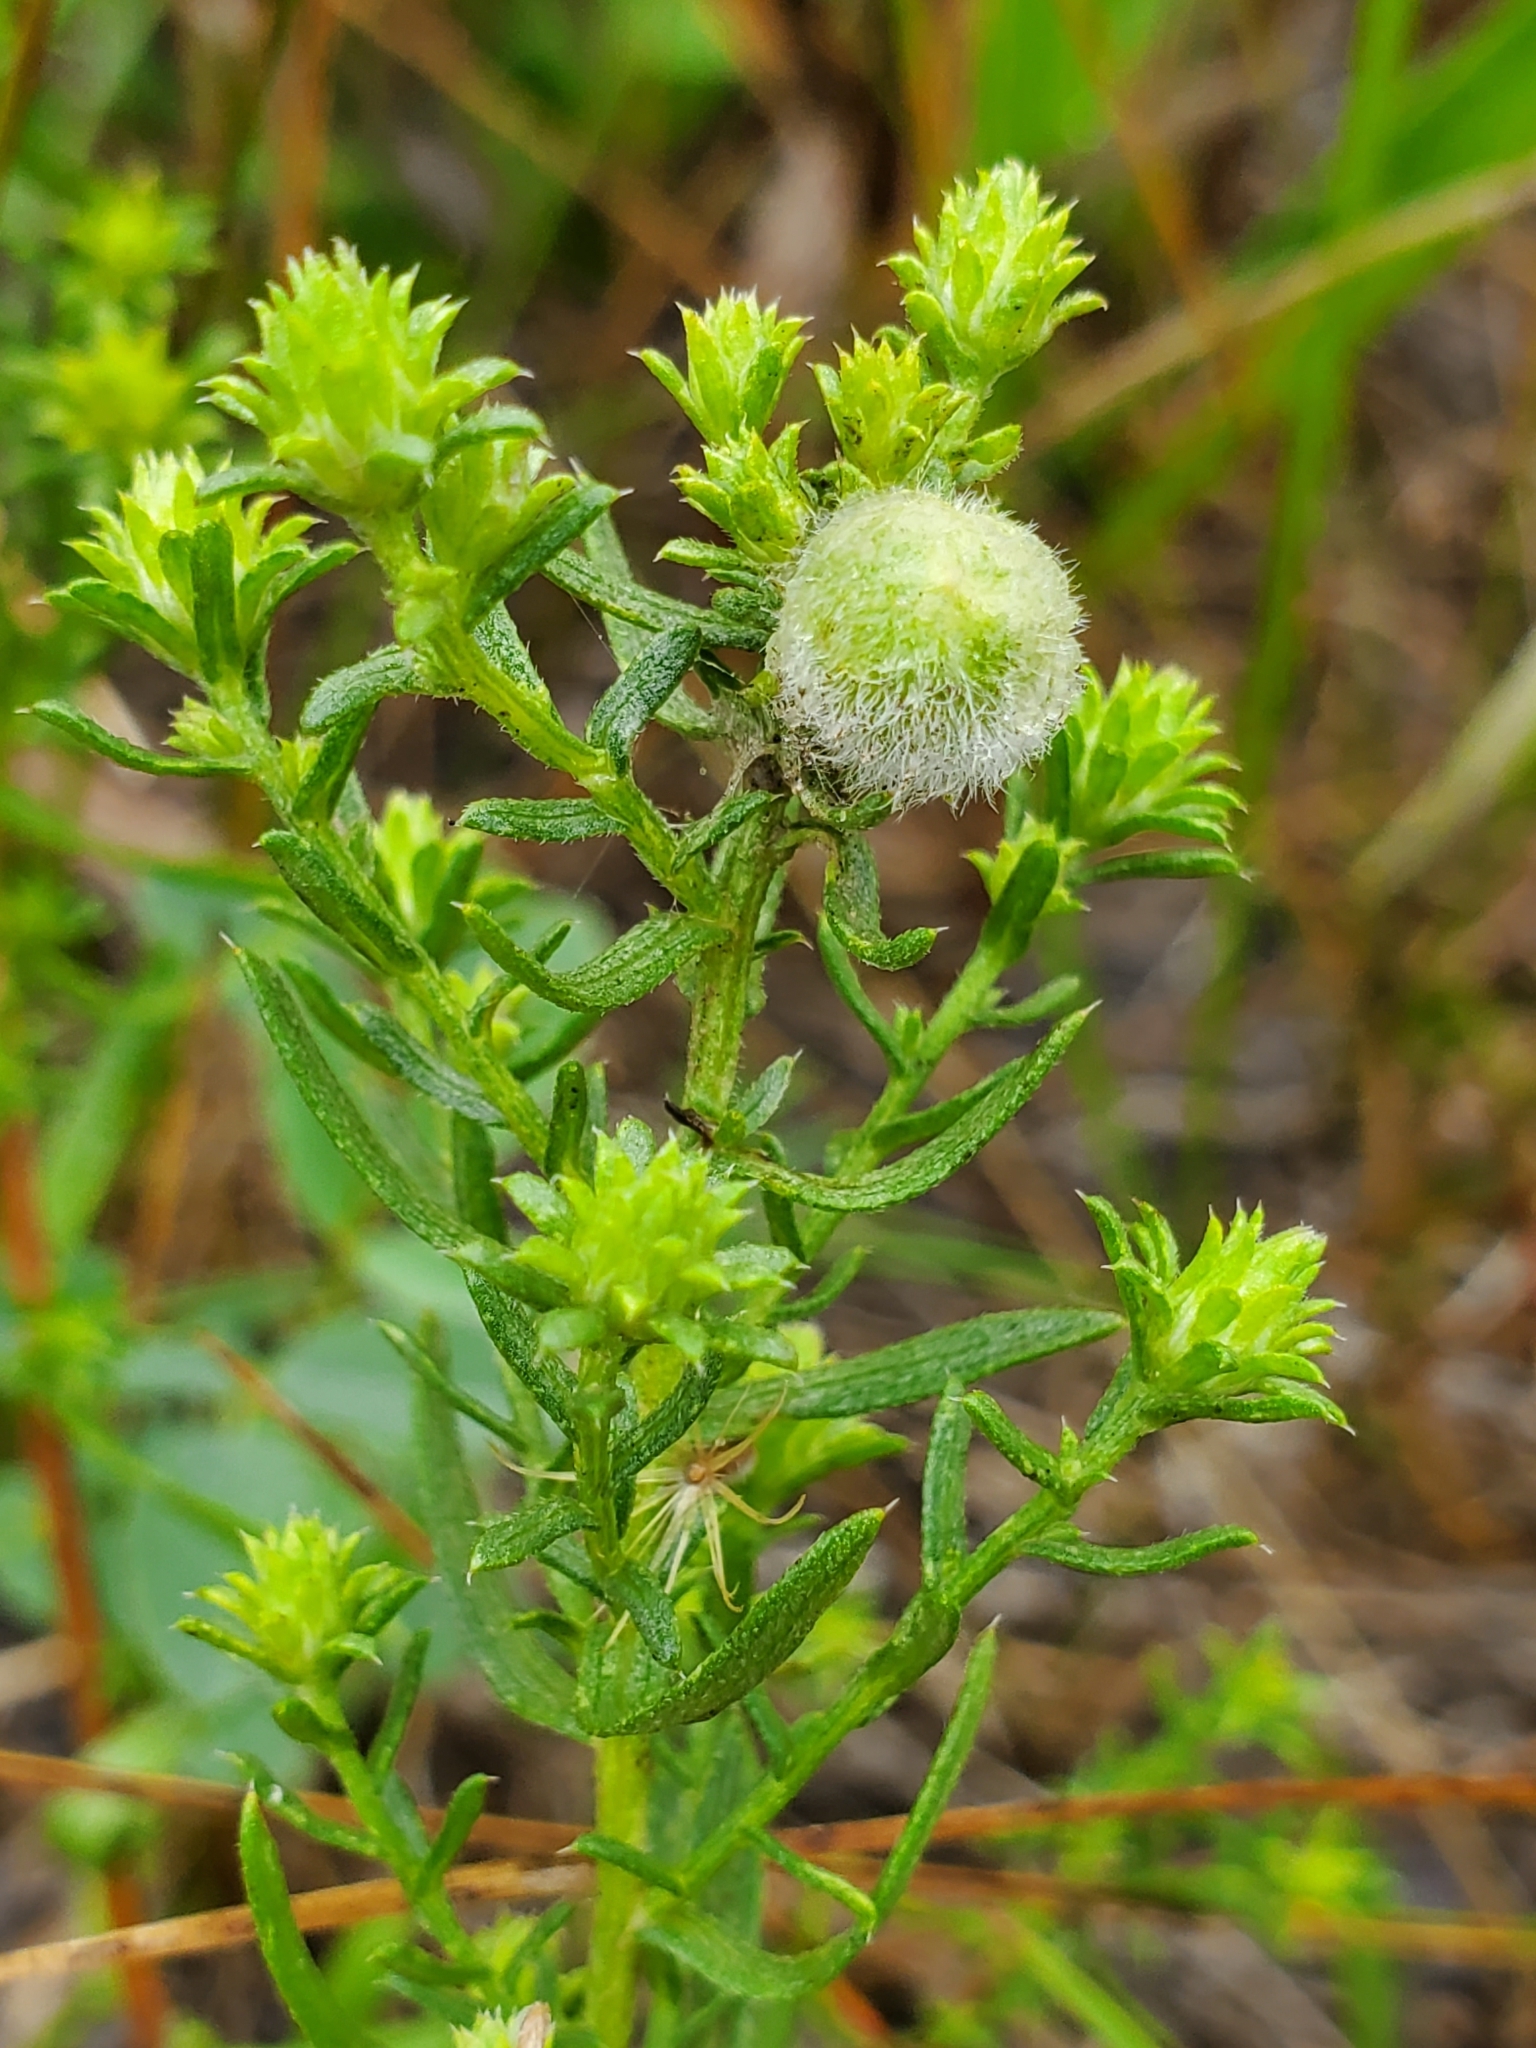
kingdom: Animalia
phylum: Arthropoda
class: Insecta
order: Diptera
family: Cecidomyiidae
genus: Rhopalomyia
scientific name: Rhopalomyia gemmaria
